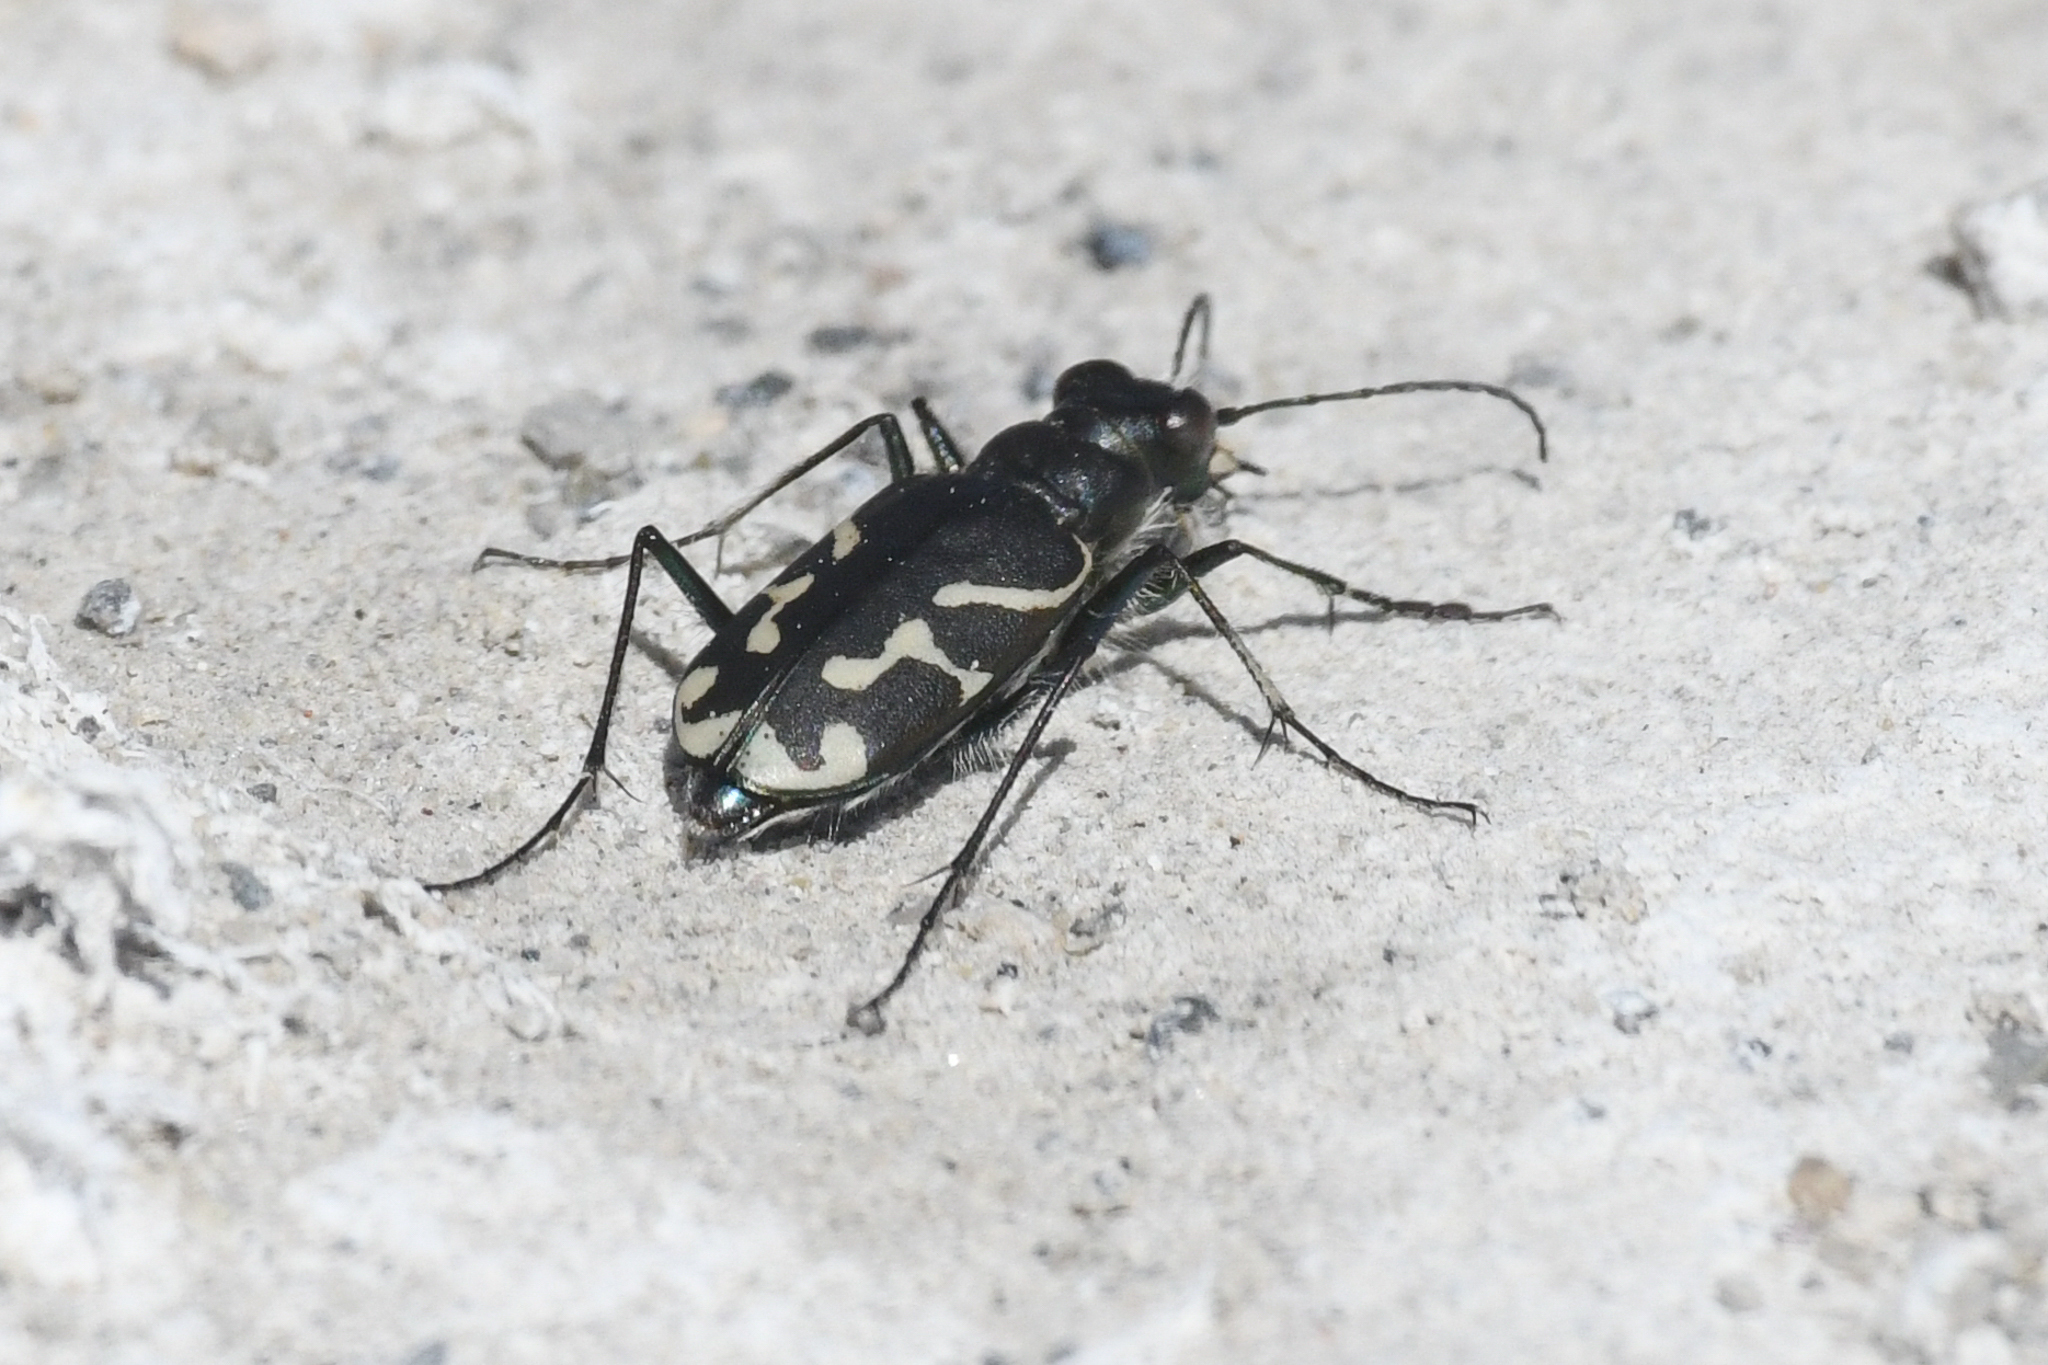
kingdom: Animalia
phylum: Arthropoda
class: Insecta
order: Coleoptera
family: Carabidae
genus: Cicindela
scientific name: Cicindela tranquebarica
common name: Oblique-lined tiger beetle
